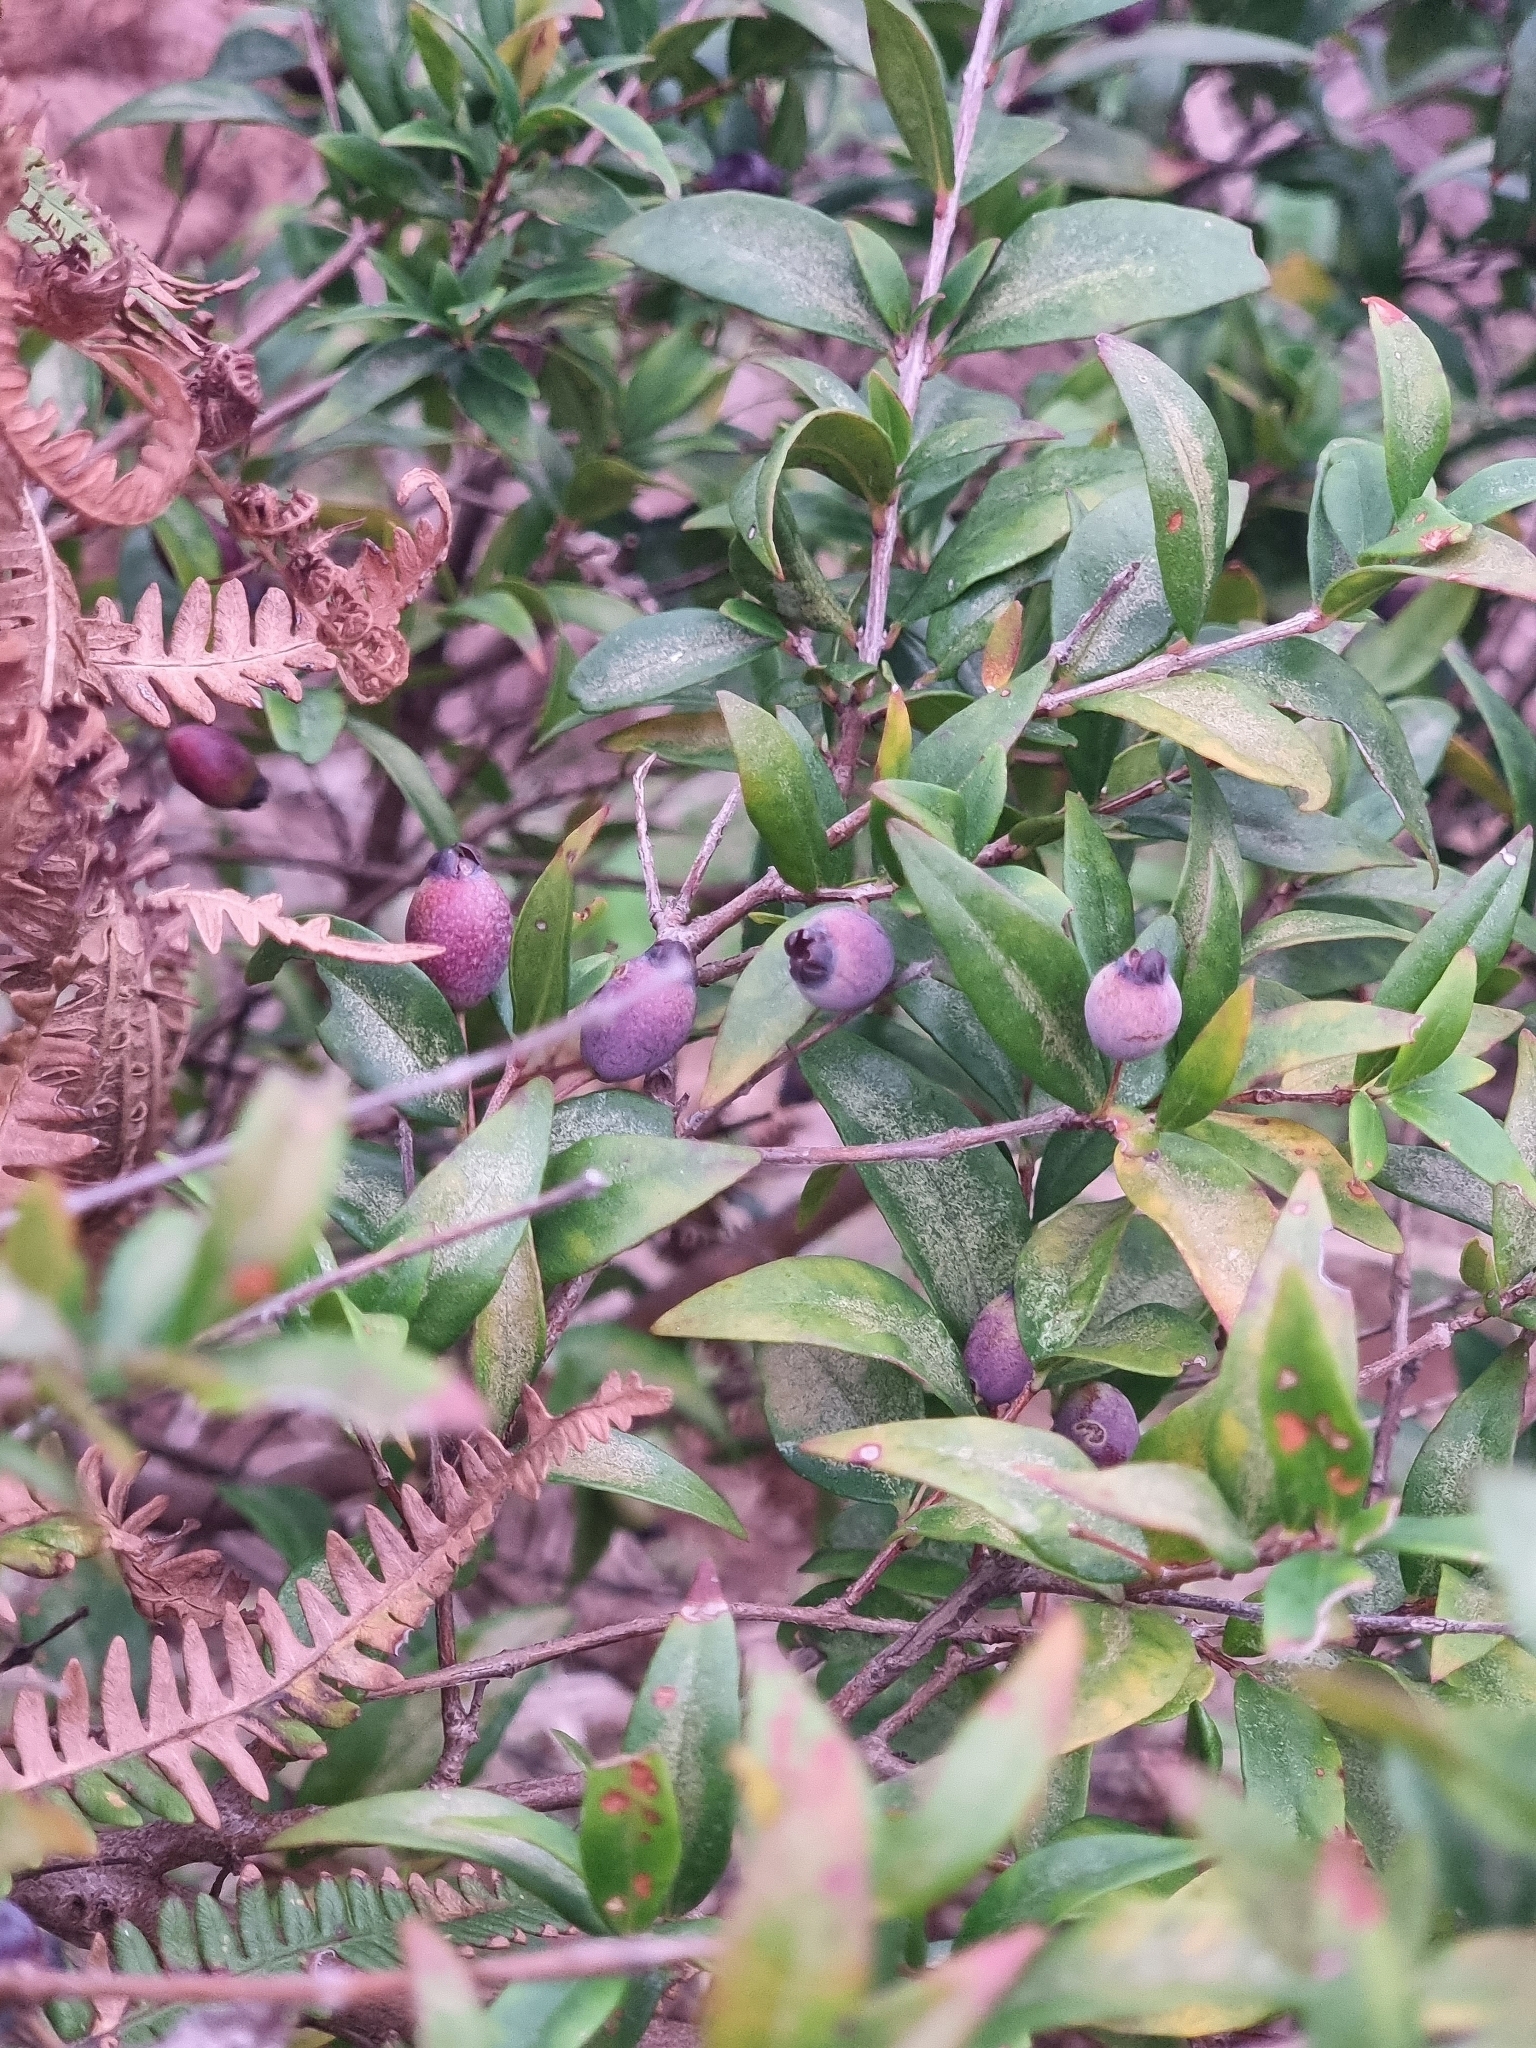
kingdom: Plantae
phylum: Tracheophyta
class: Magnoliopsida
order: Myrtales
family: Myrtaceae
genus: Myrtus
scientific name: Myrtus communis
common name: Myrtle
